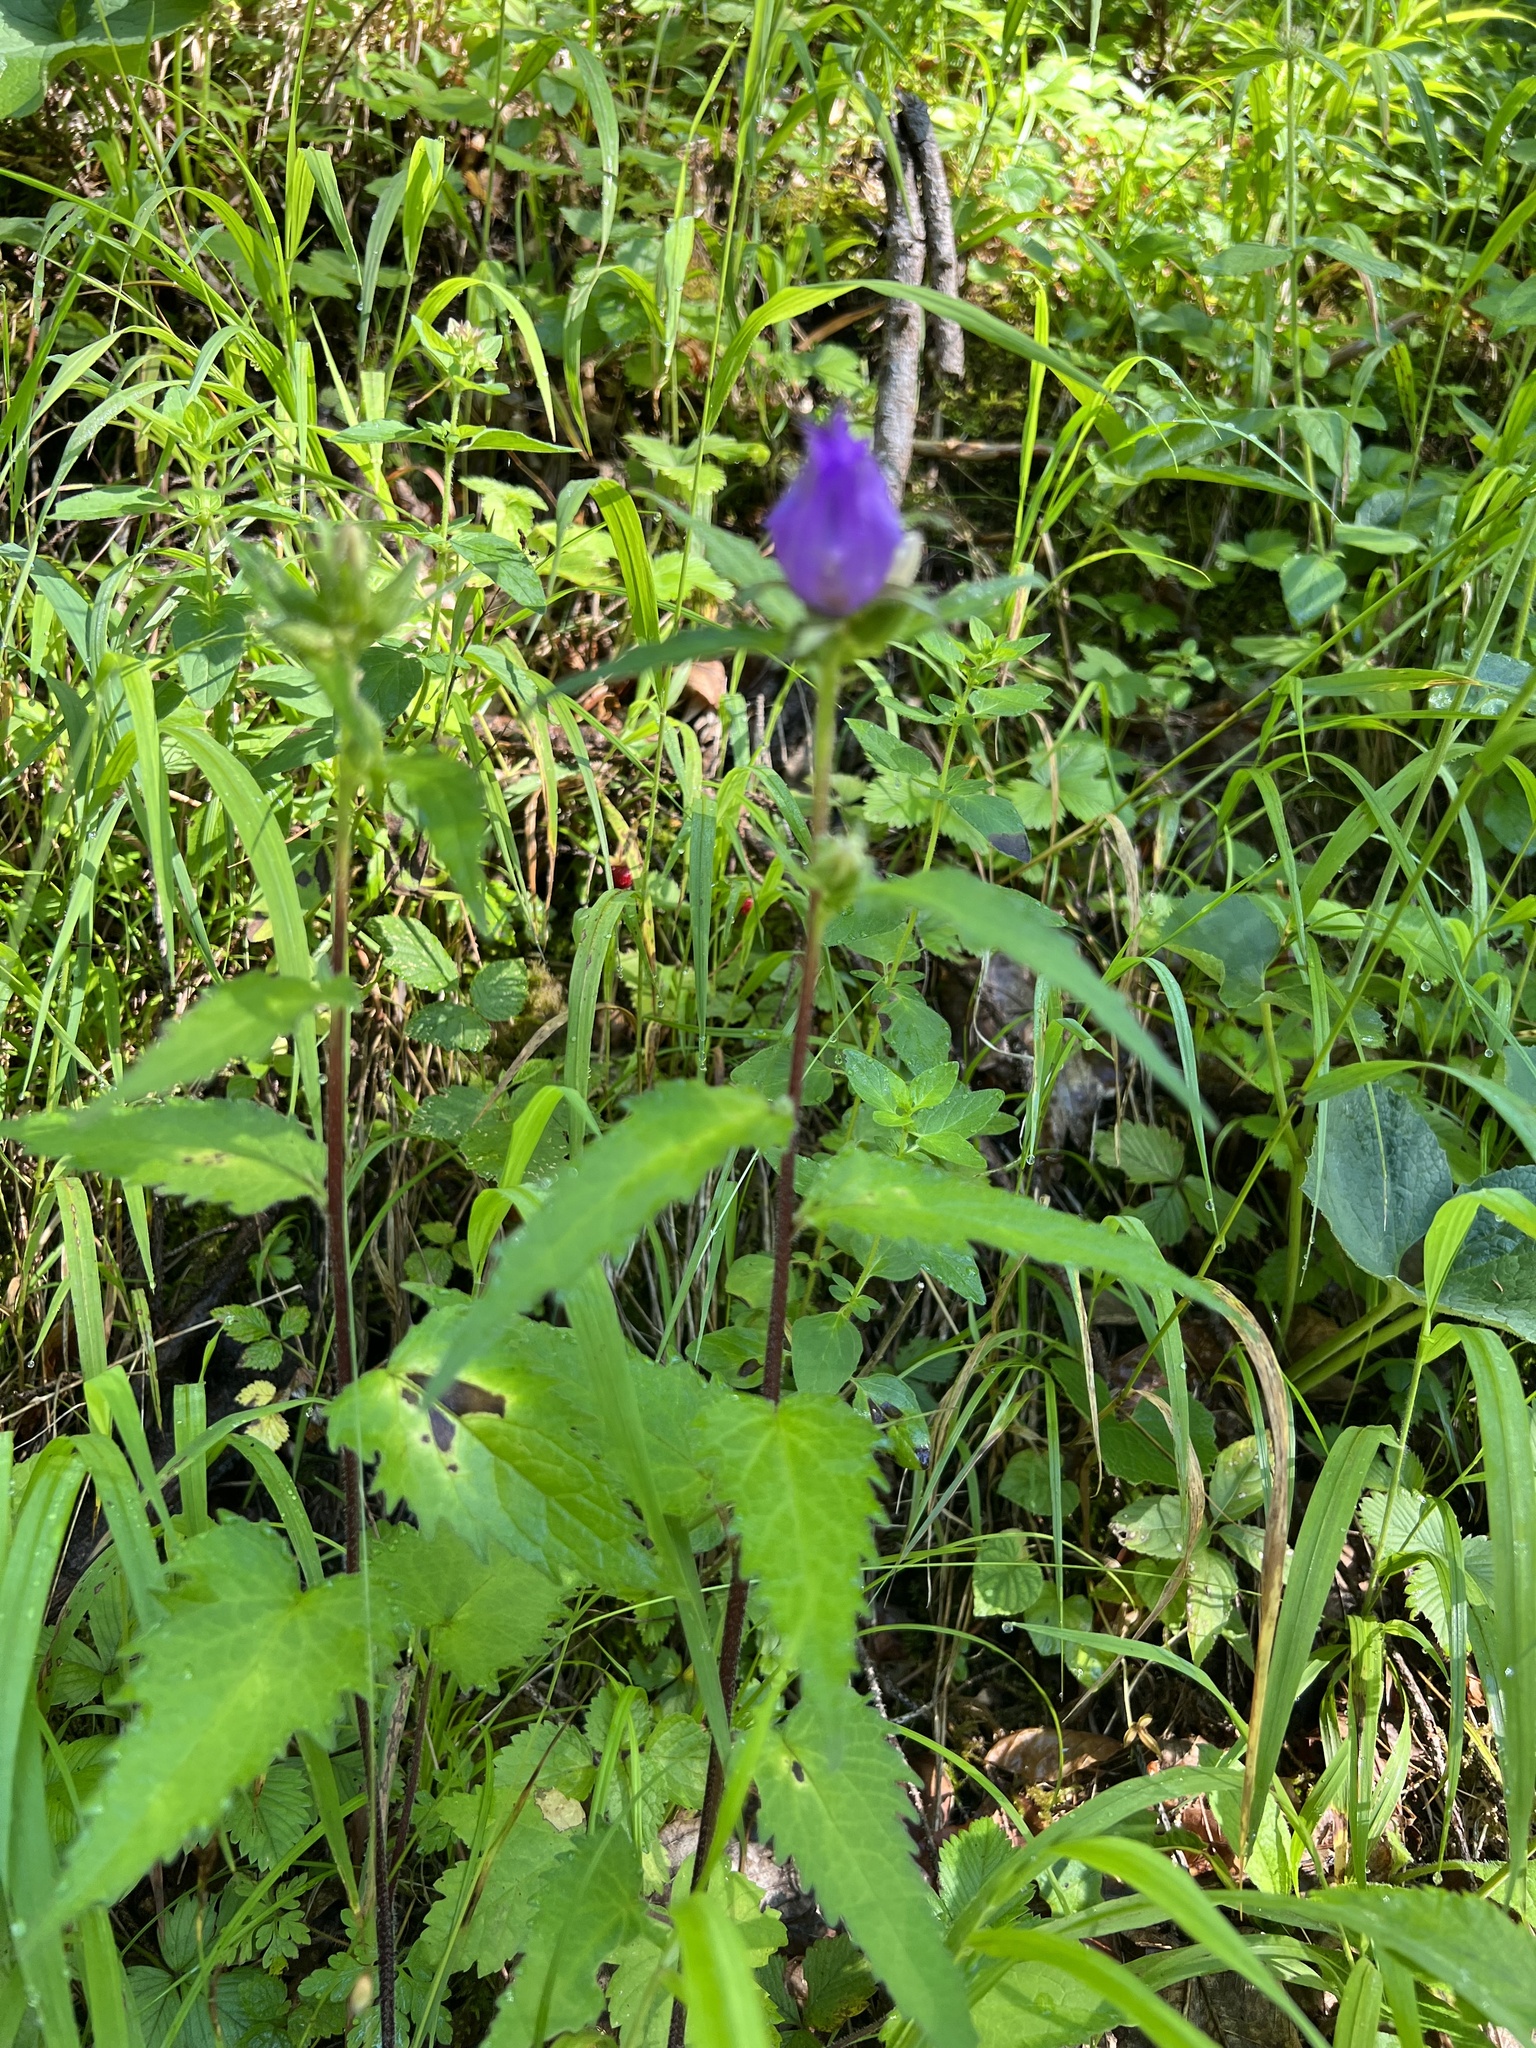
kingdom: Plantae
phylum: Tracheophyta
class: Magnoliopsida
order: Asterales
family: Campanulaceae
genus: Campanula
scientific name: Campanula trachelium
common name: Nettle-leaved bellflower
